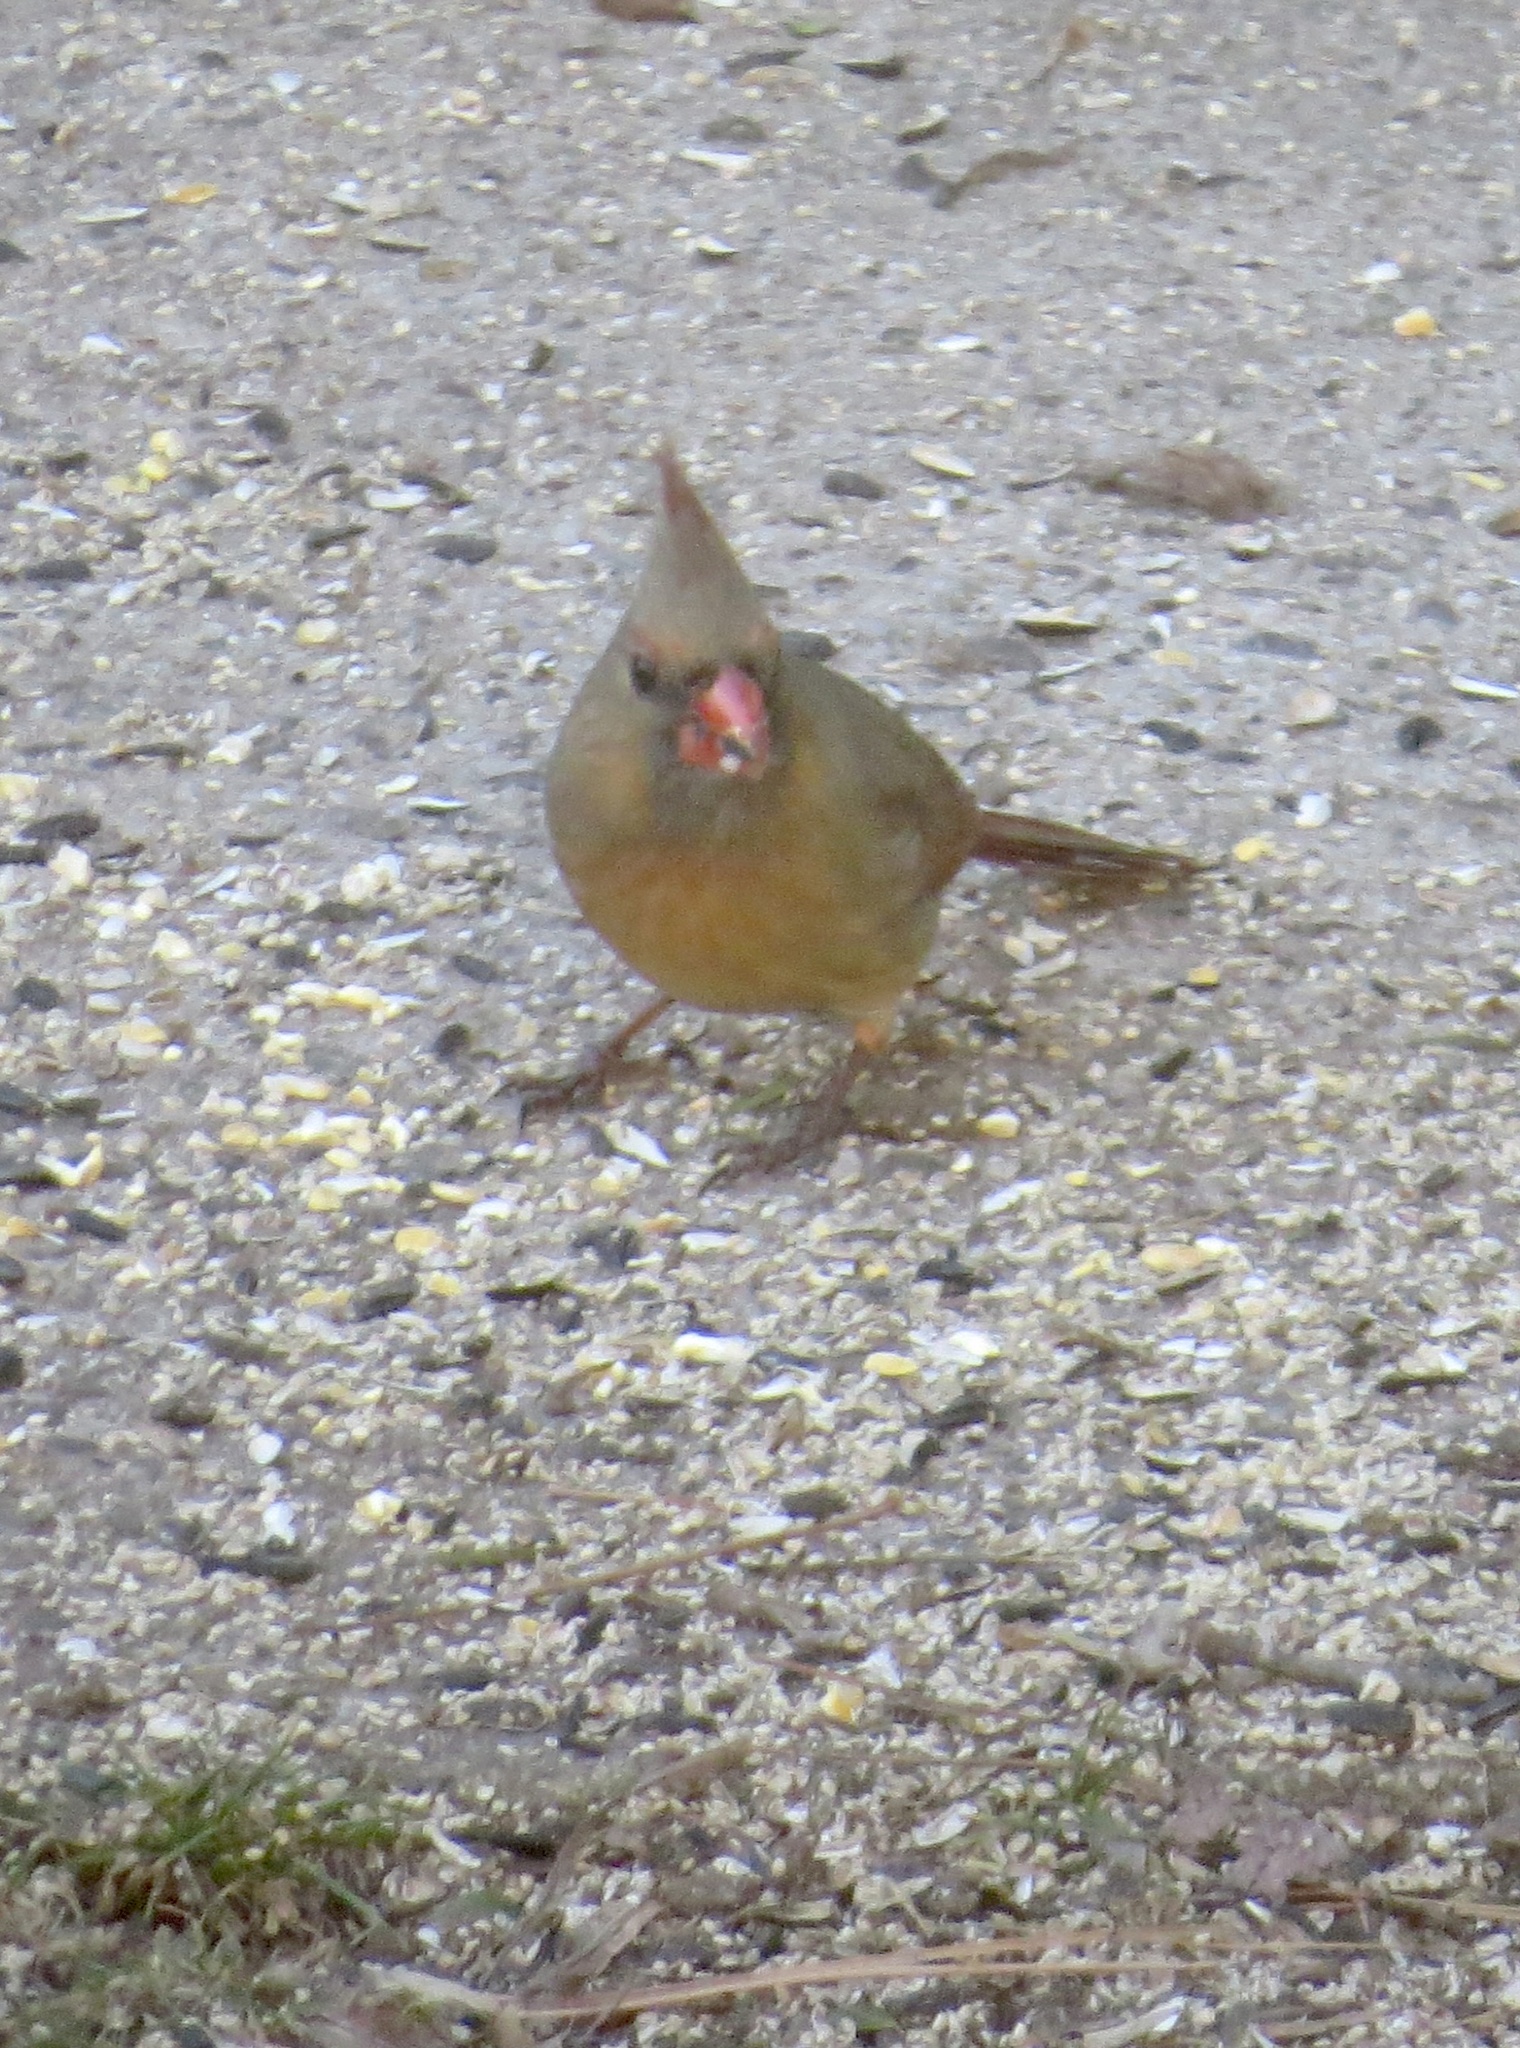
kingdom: Animalia
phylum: Chordata
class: Aves
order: Passeriformes
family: Cardinalidae
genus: Cardinalis
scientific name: Cardinalis cardinalis
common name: Northern cardinal
